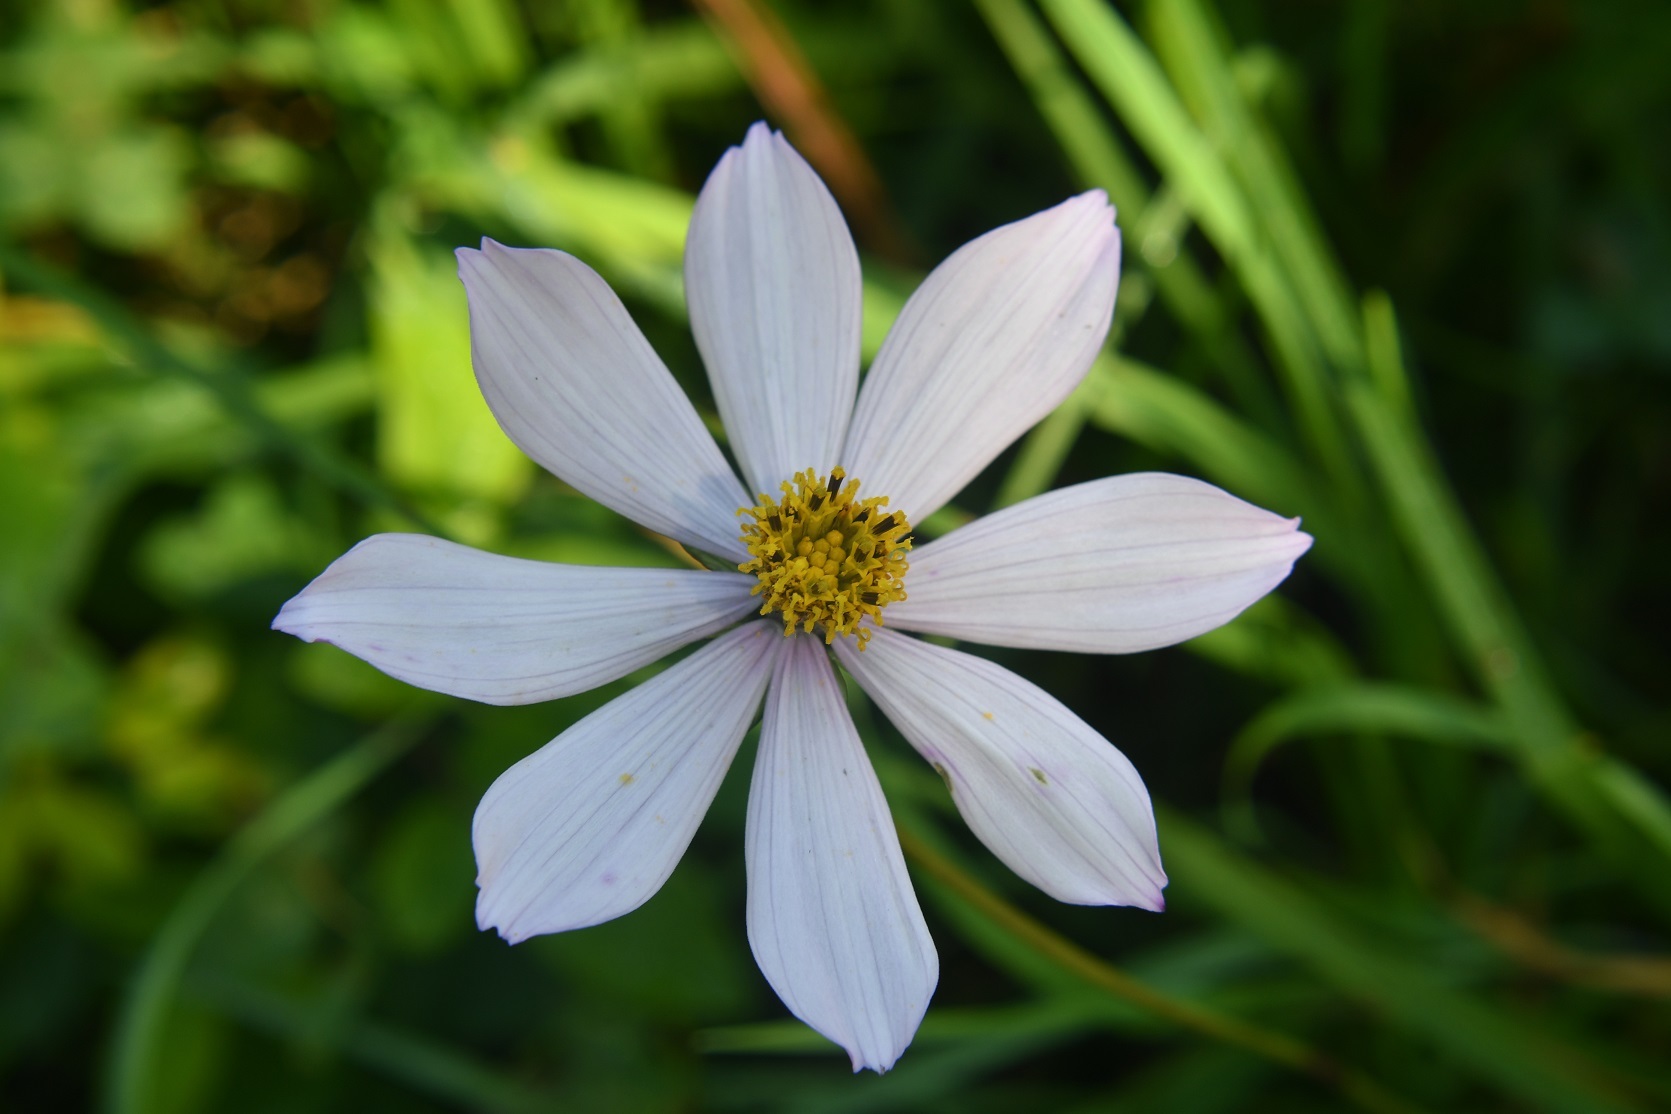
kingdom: Plantae
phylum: Tracheophyta
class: Magnoliopsida
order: Asterales
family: Asteraceae
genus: Cosmos
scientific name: Cosmos diversifolius
